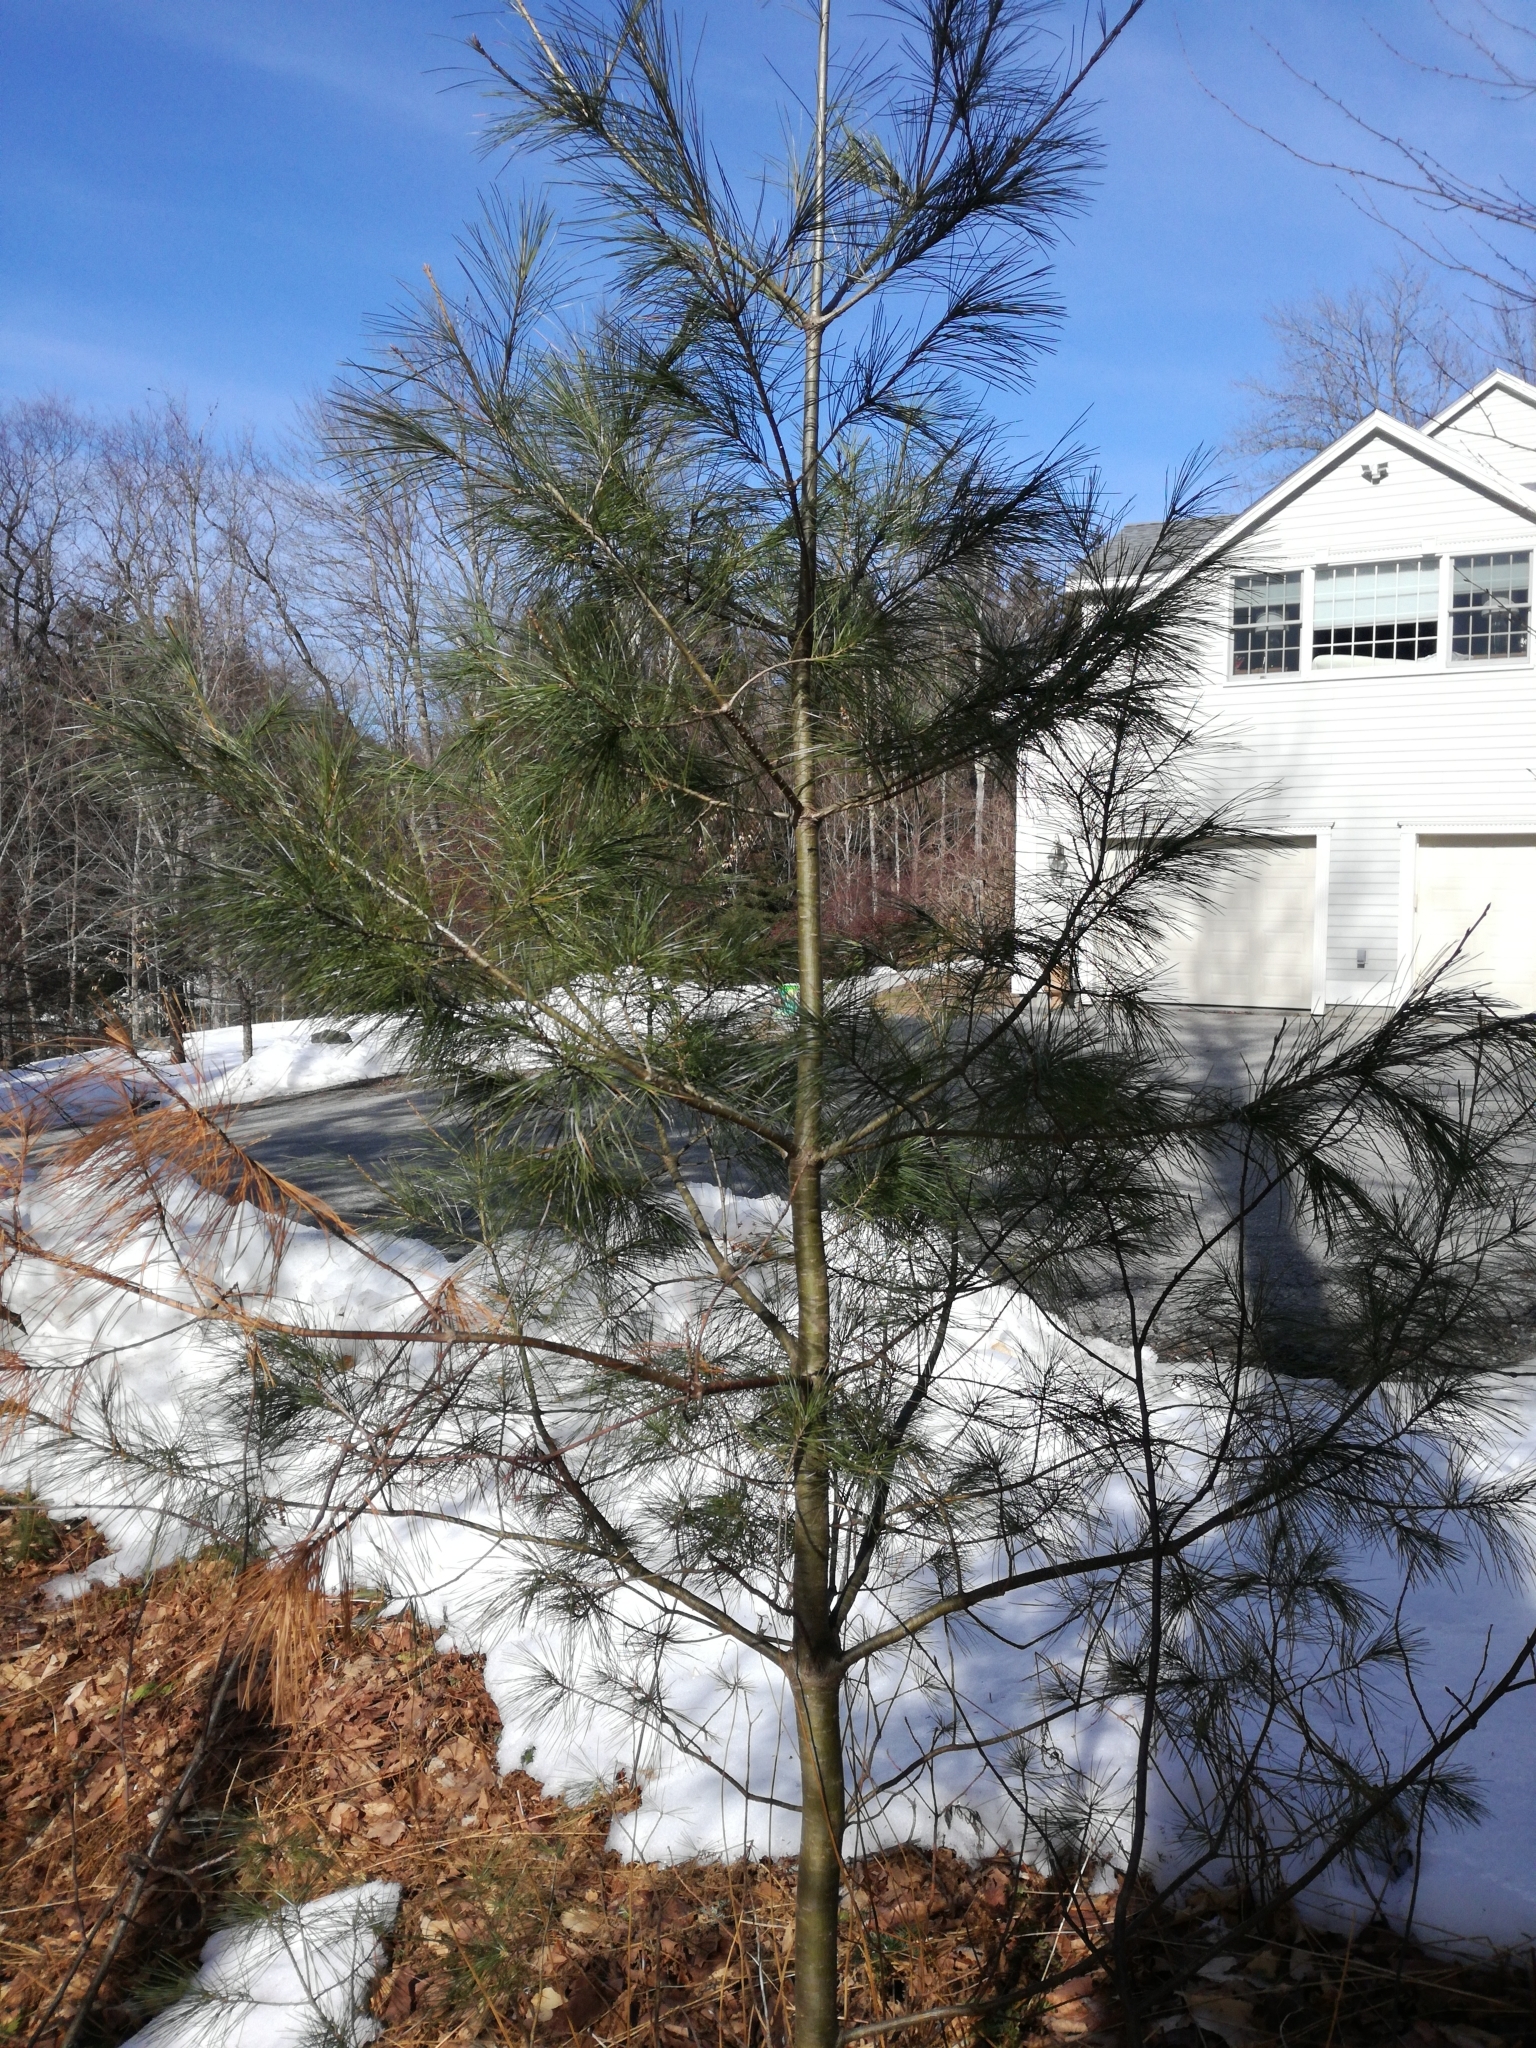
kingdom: Plantae
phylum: Tracheophyta
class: Pinopsida
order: Pinales
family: Pinaceae
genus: Pinus
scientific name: Pinus strobus
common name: Weymouth pine
